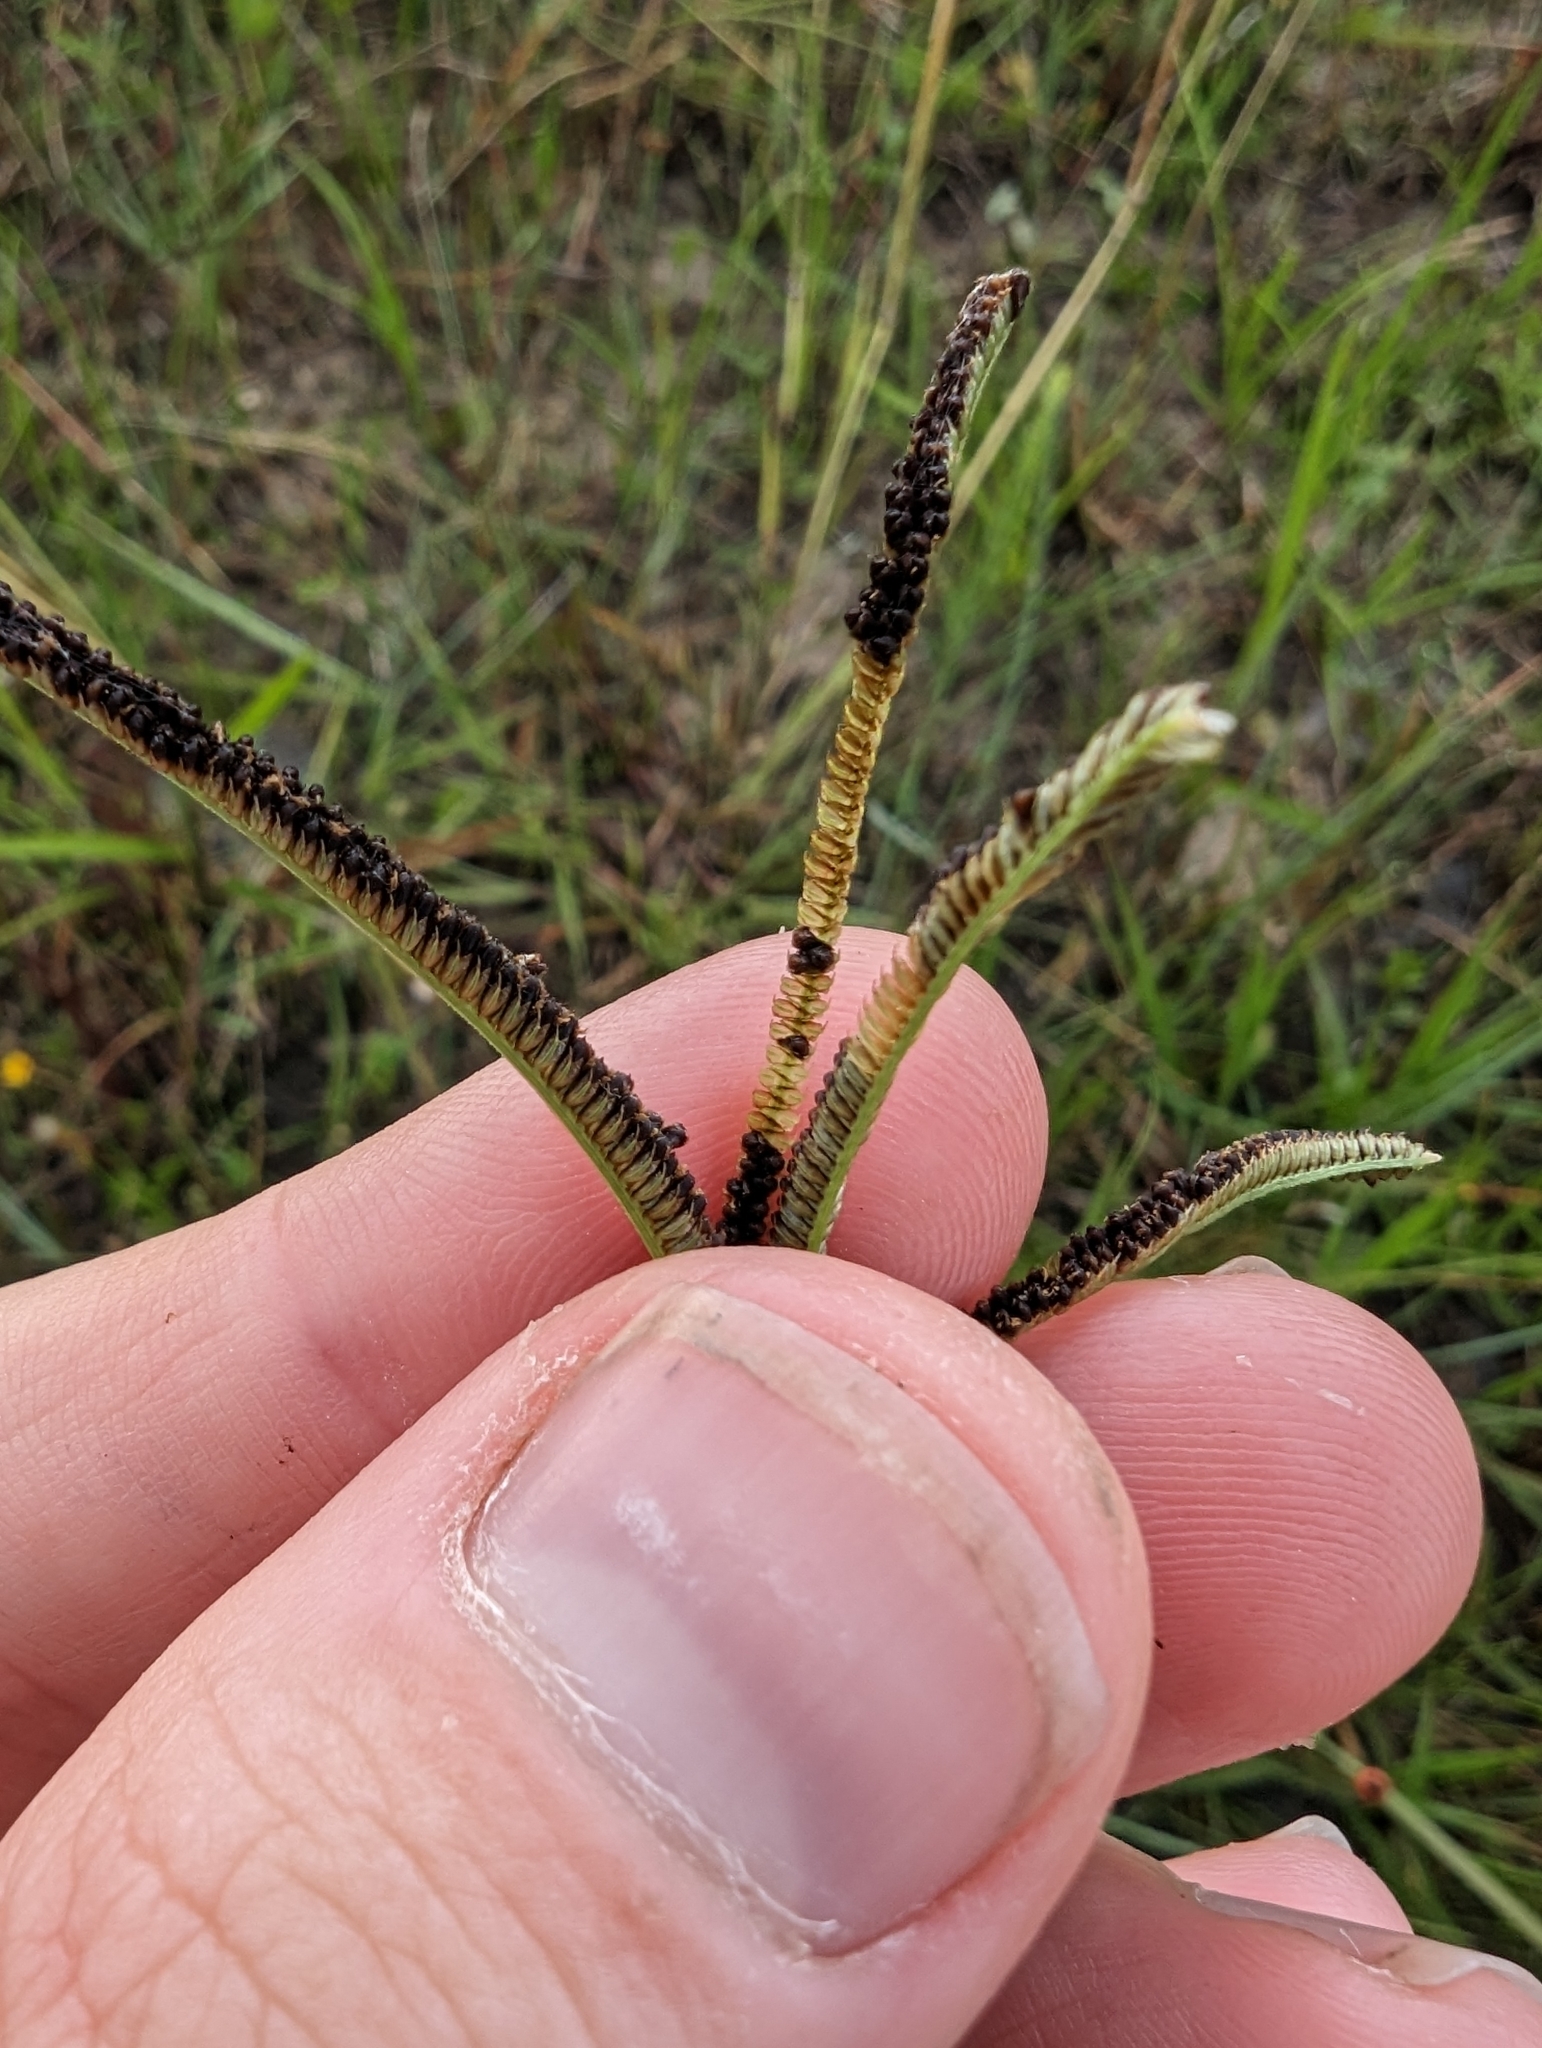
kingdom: Plantae
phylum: Tracheophyta
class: Liliopsida
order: Poales
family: Poaceae
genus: Eustachys
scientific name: Eustachys petraea
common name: Pinewoods fingergrass
